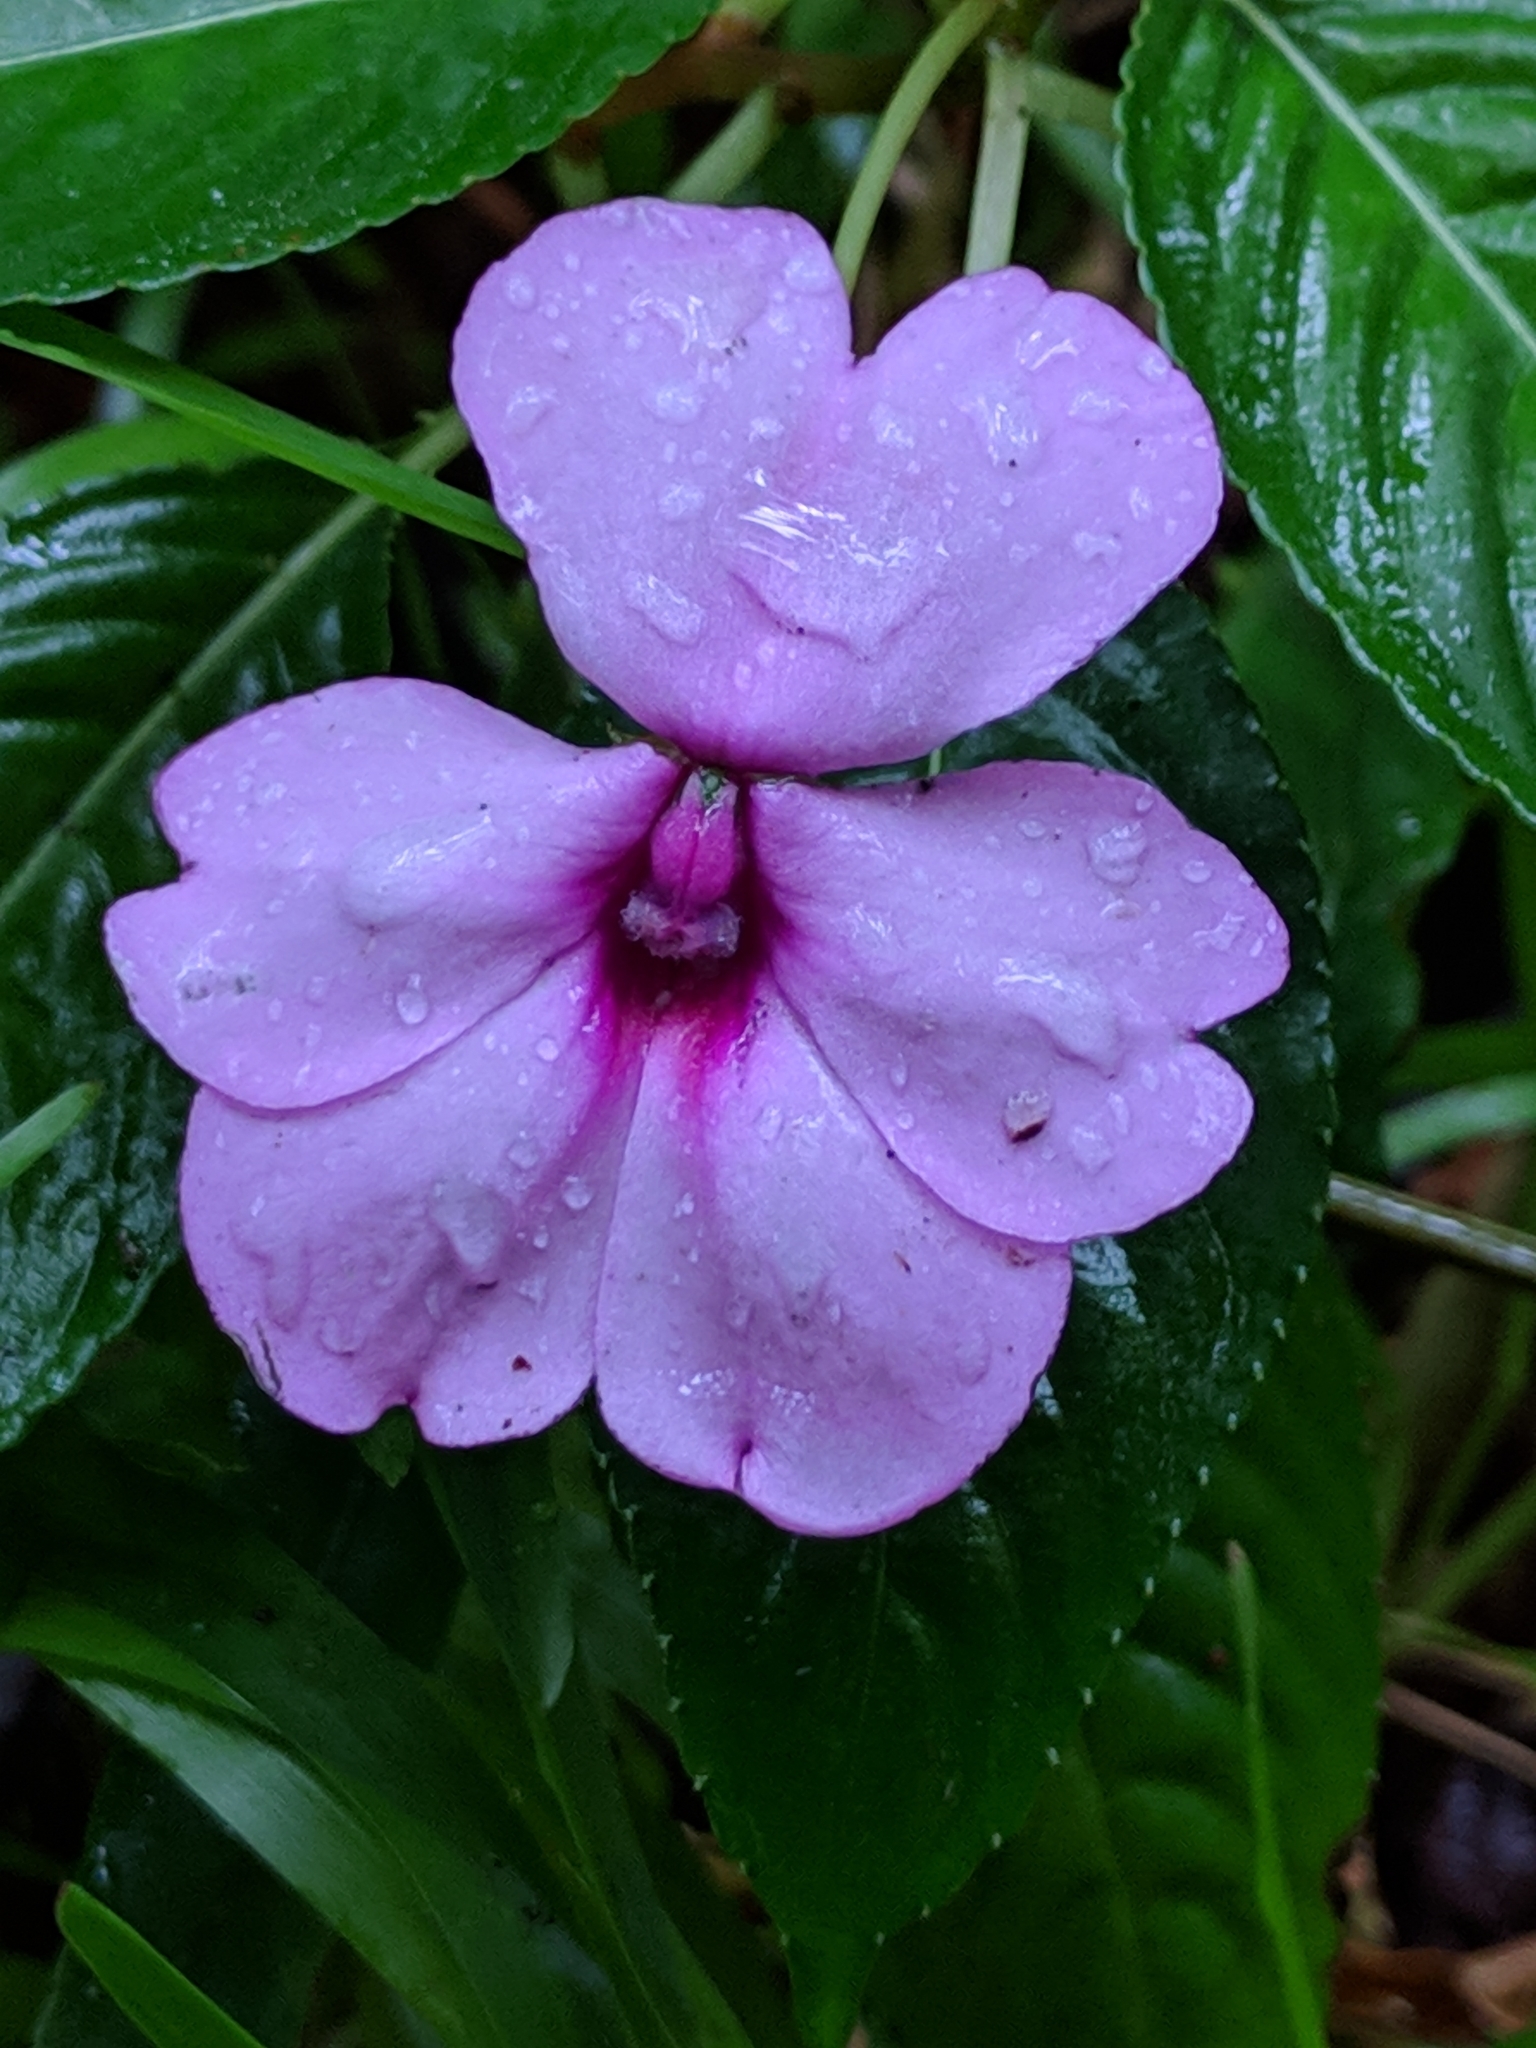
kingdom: Plantae
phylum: Tracheophyta
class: Magnoliopsida
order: Ericales
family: Balsaminaceae
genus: Impatiens
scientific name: Impatiens flaccida
